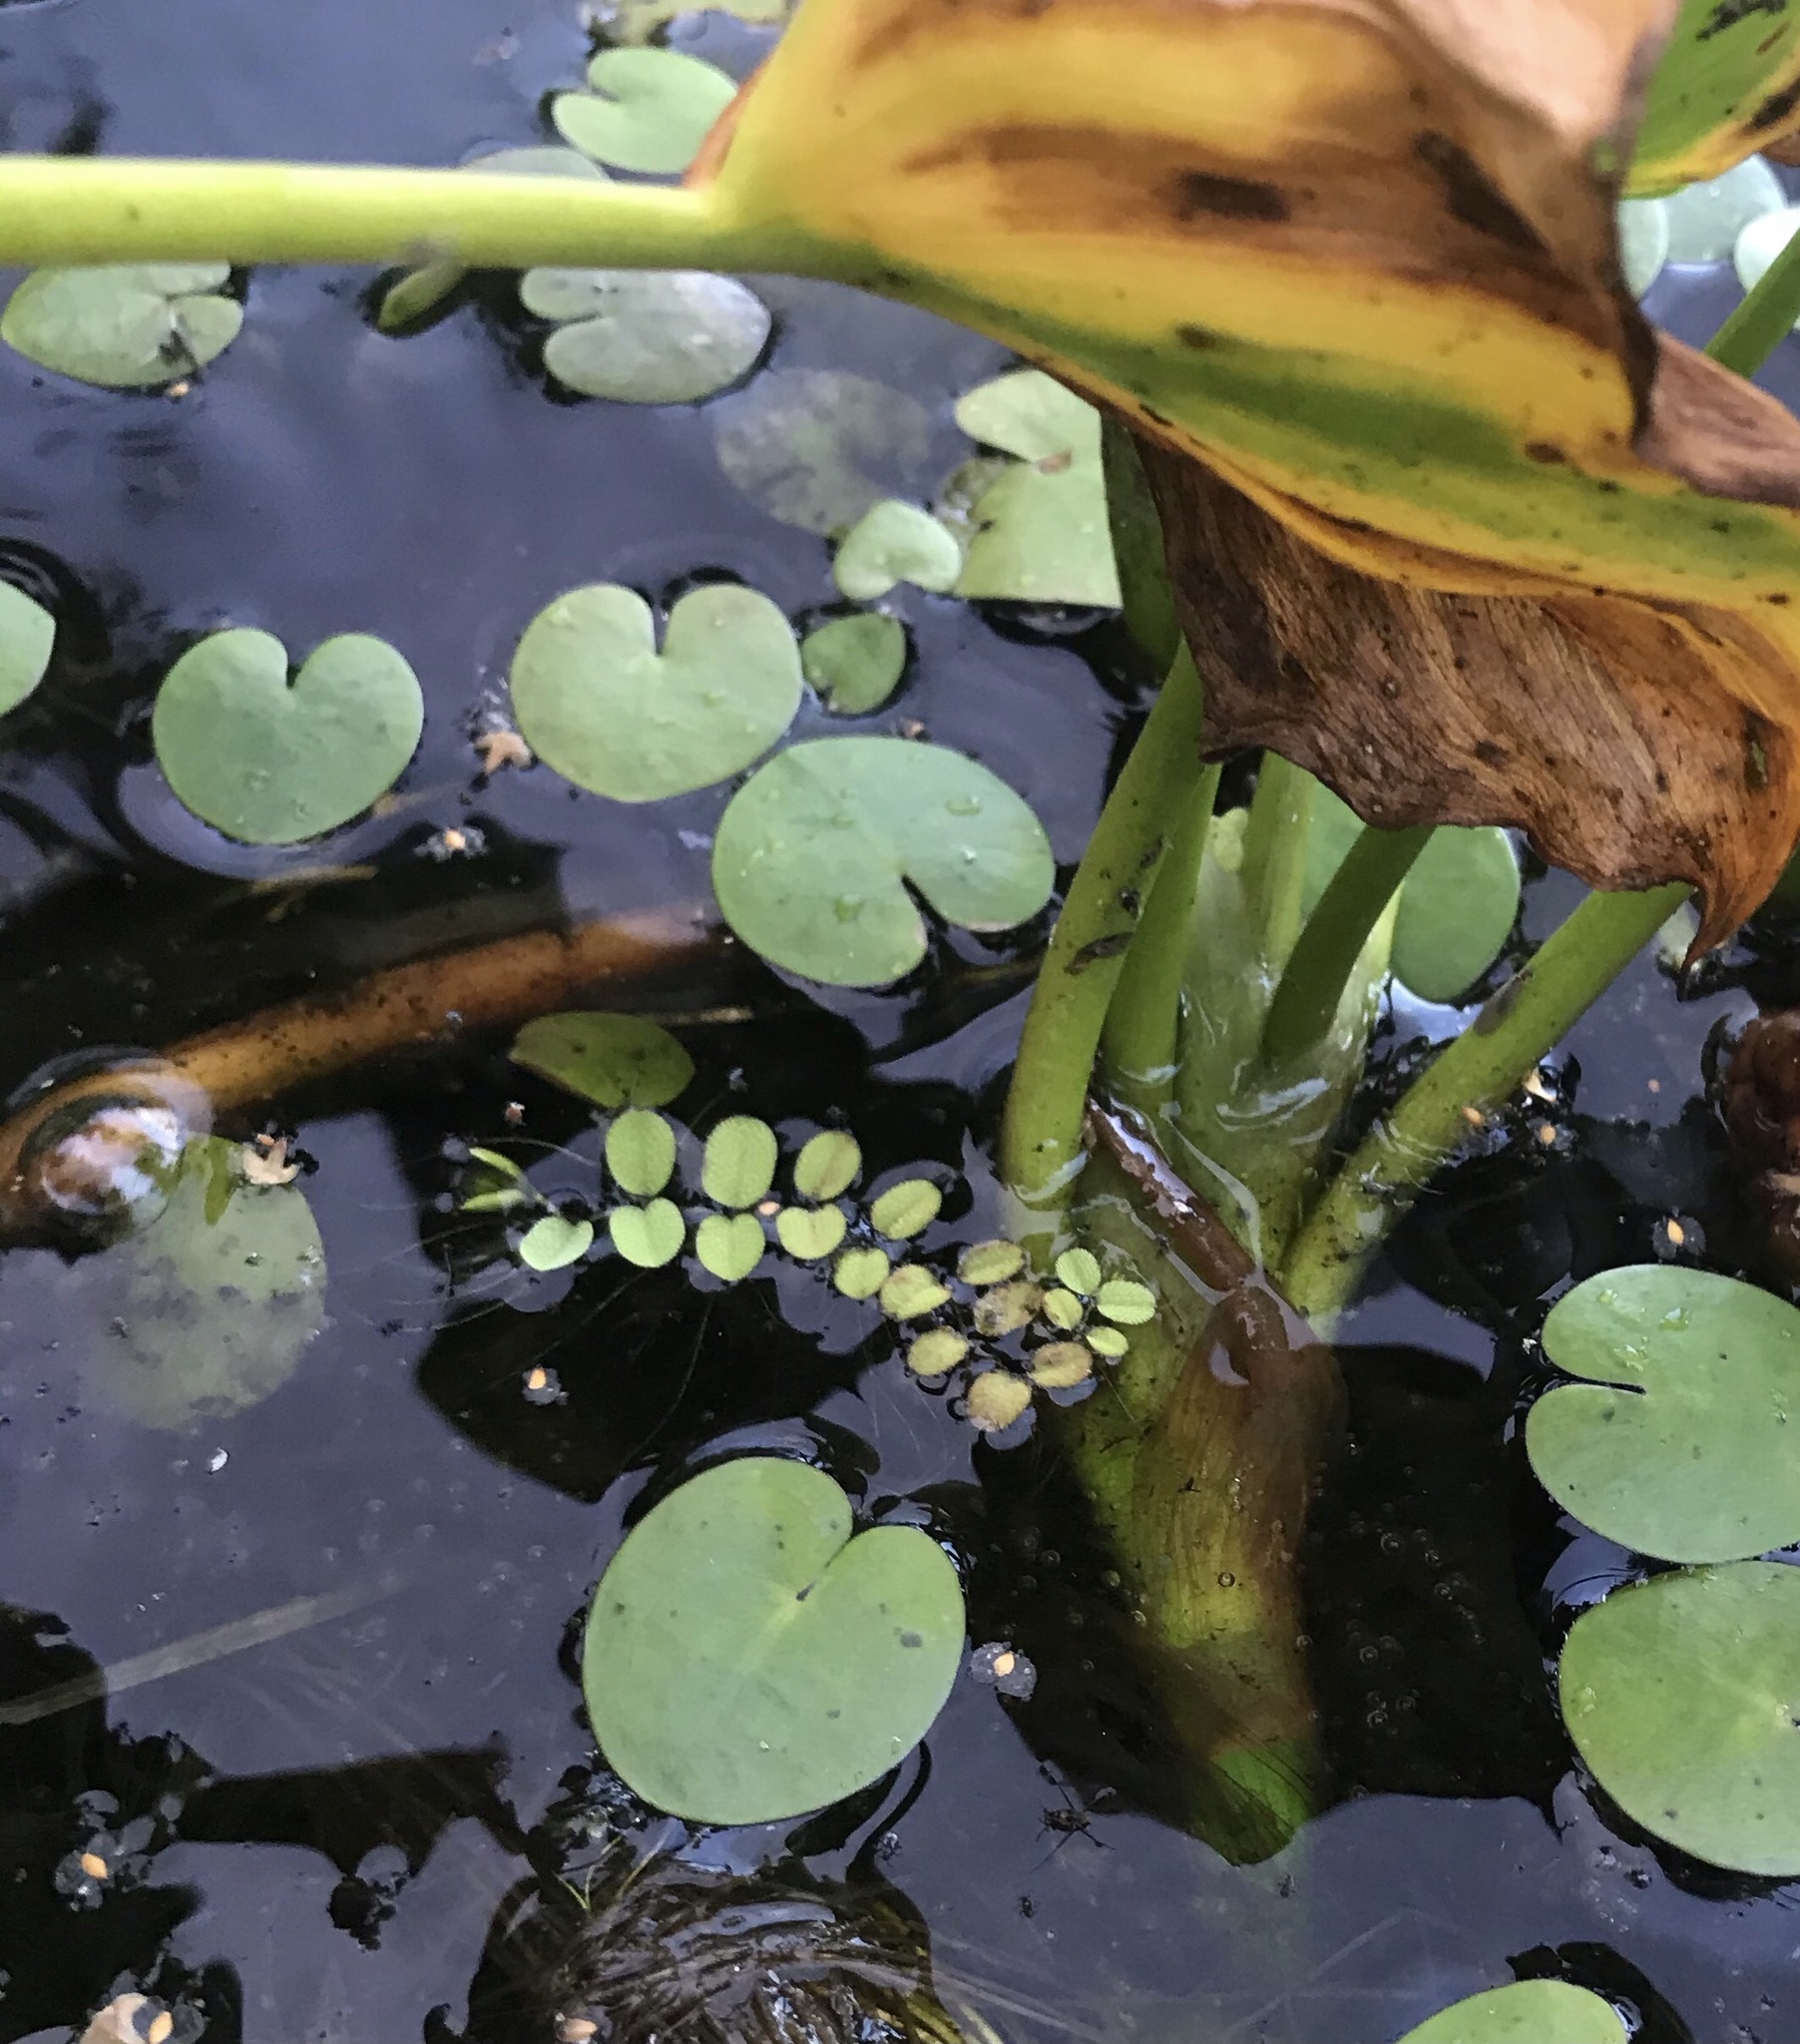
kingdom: Plantae
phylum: Tracheophyta
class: Polypodiopsida
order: Salviniales
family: Salviniaceae
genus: Salvinia
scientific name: Salvinia natans
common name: Floating fern
